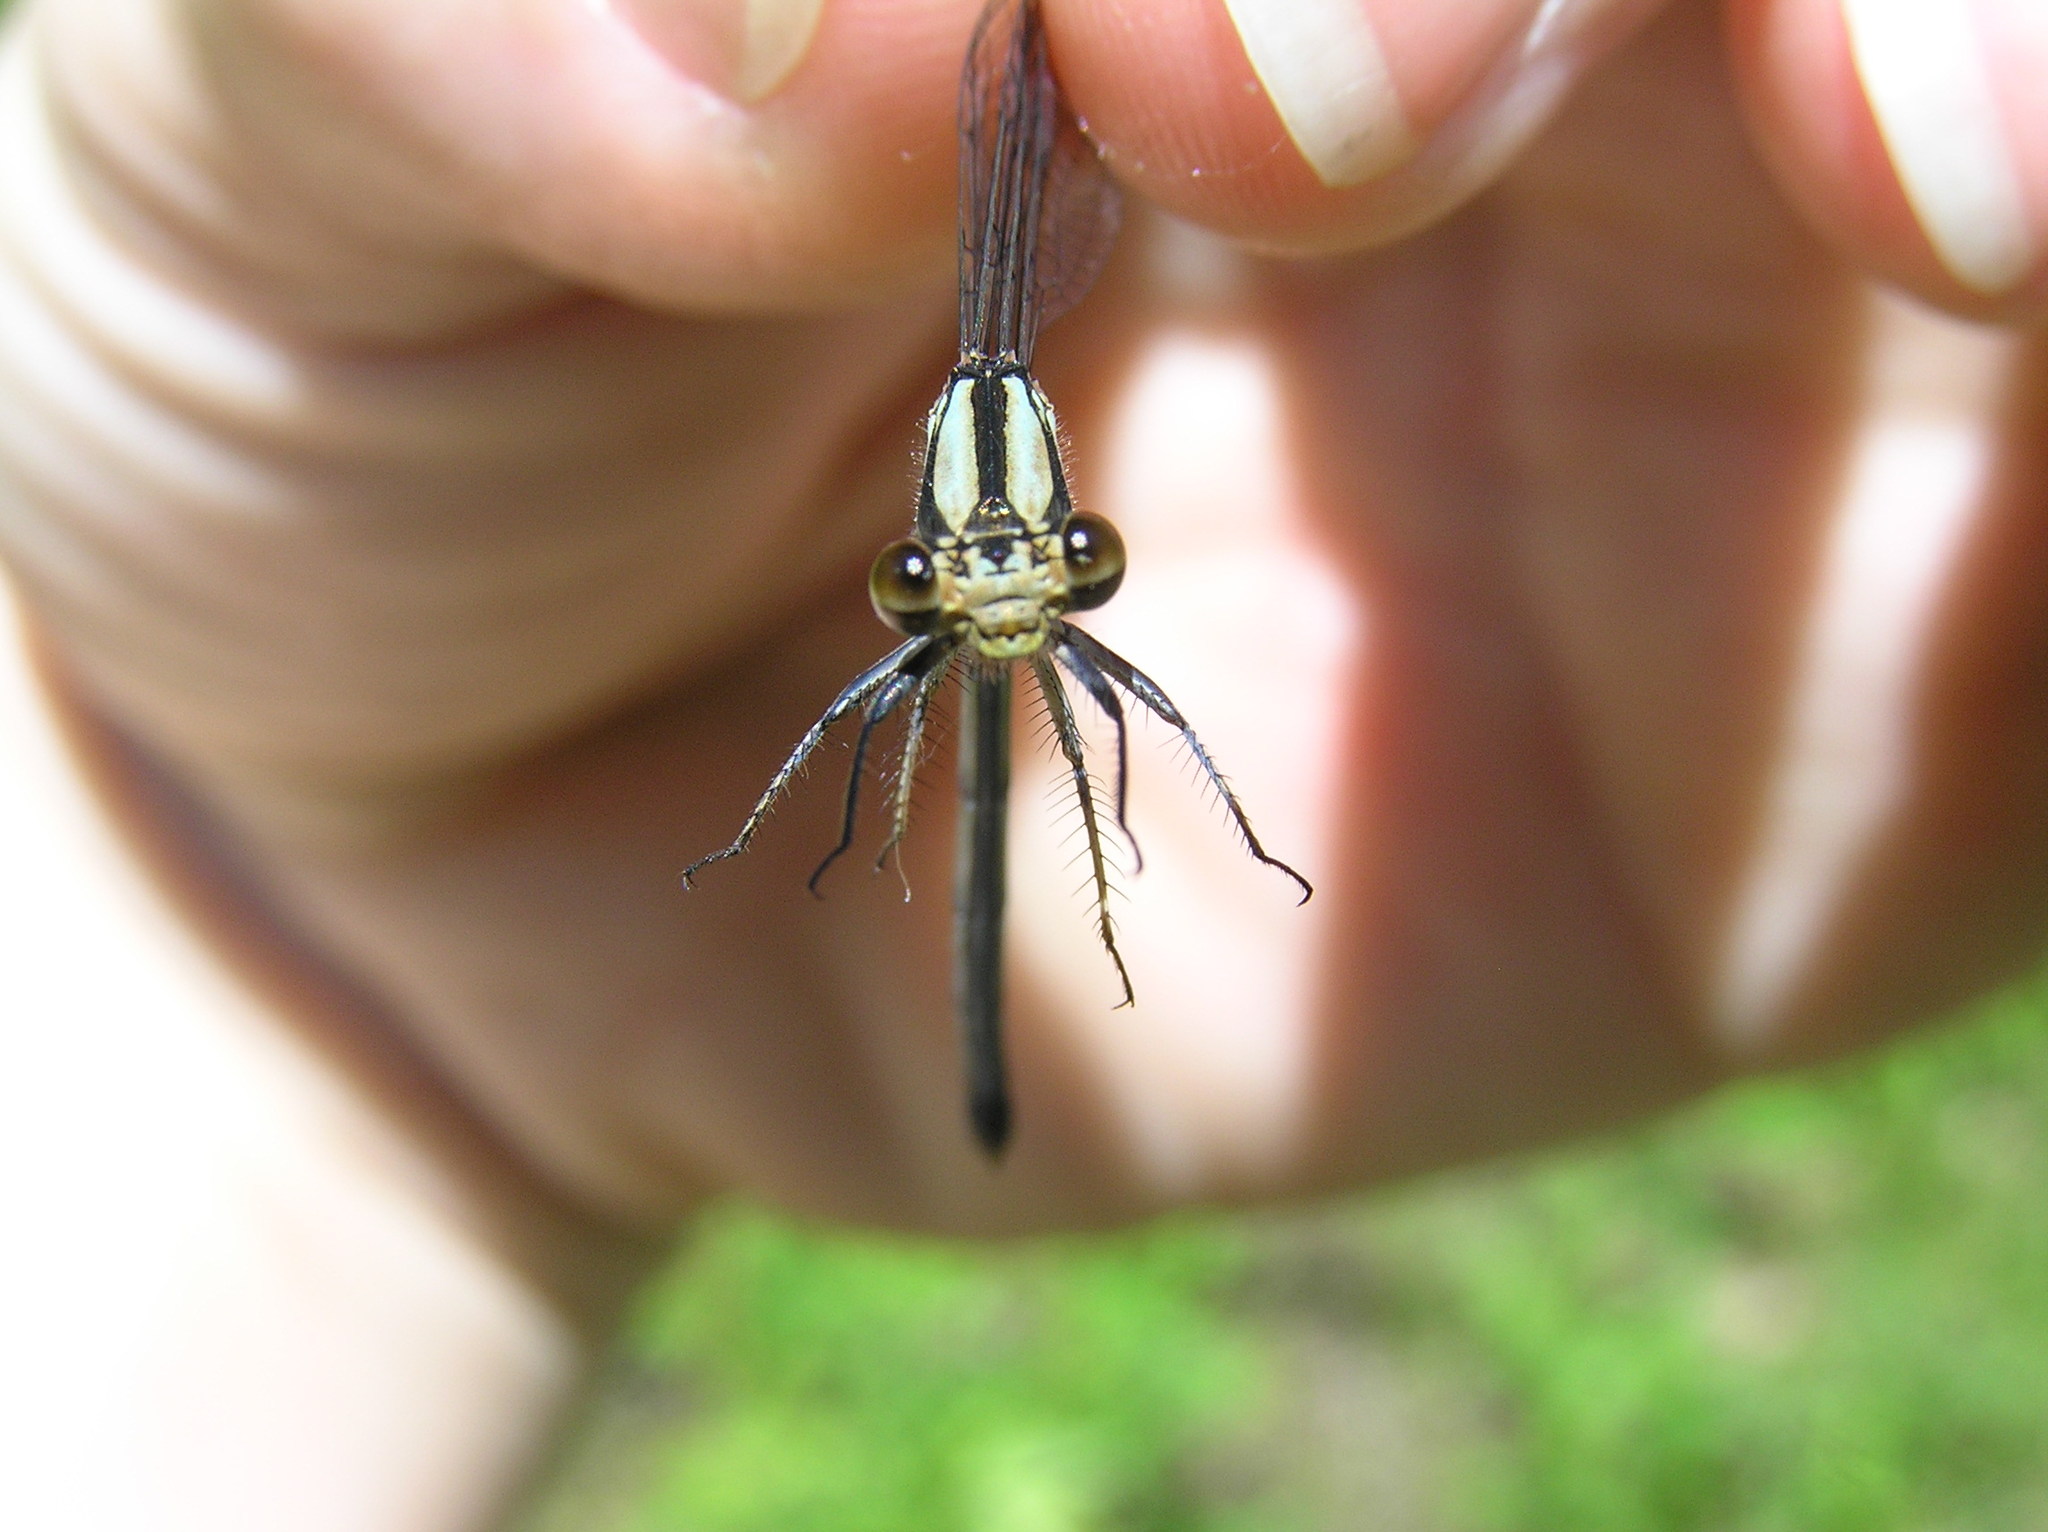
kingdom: Animalia
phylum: Arthropoda
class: Insecta
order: Odonata
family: Coenagrionidae
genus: Argia
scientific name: Argia tibialis
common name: Blue-tipped dancer
